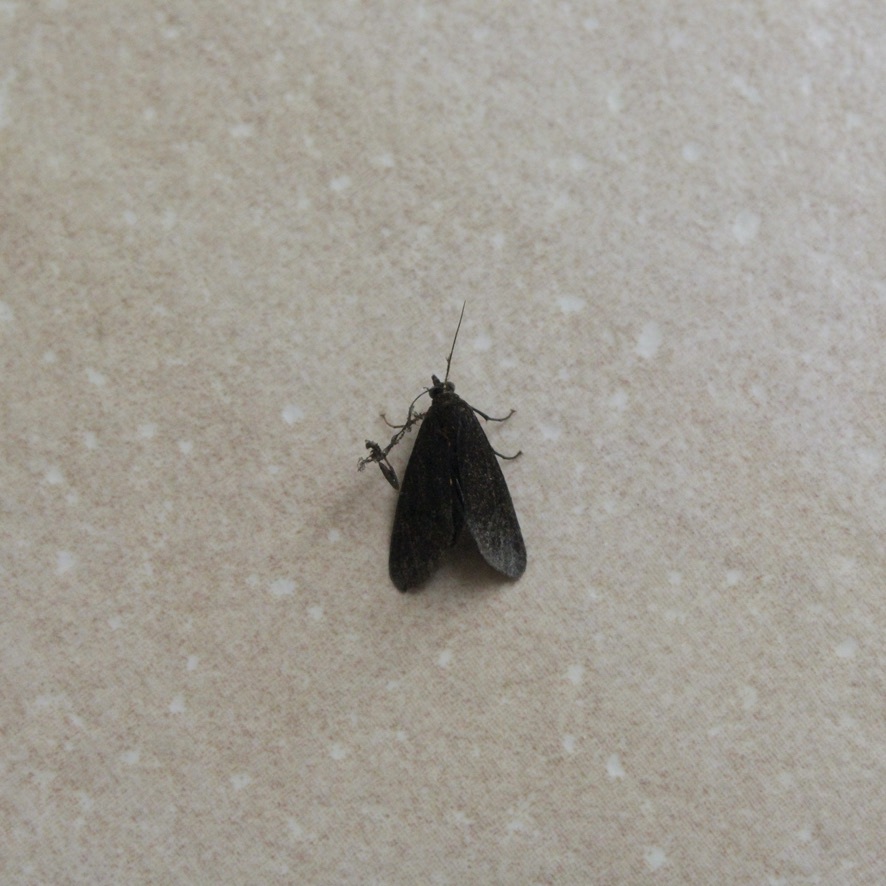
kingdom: Animalia
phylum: Arthropoda
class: Insecta
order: Lepidoptera
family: Erebidae
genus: Virbia
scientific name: Virbia medarda
